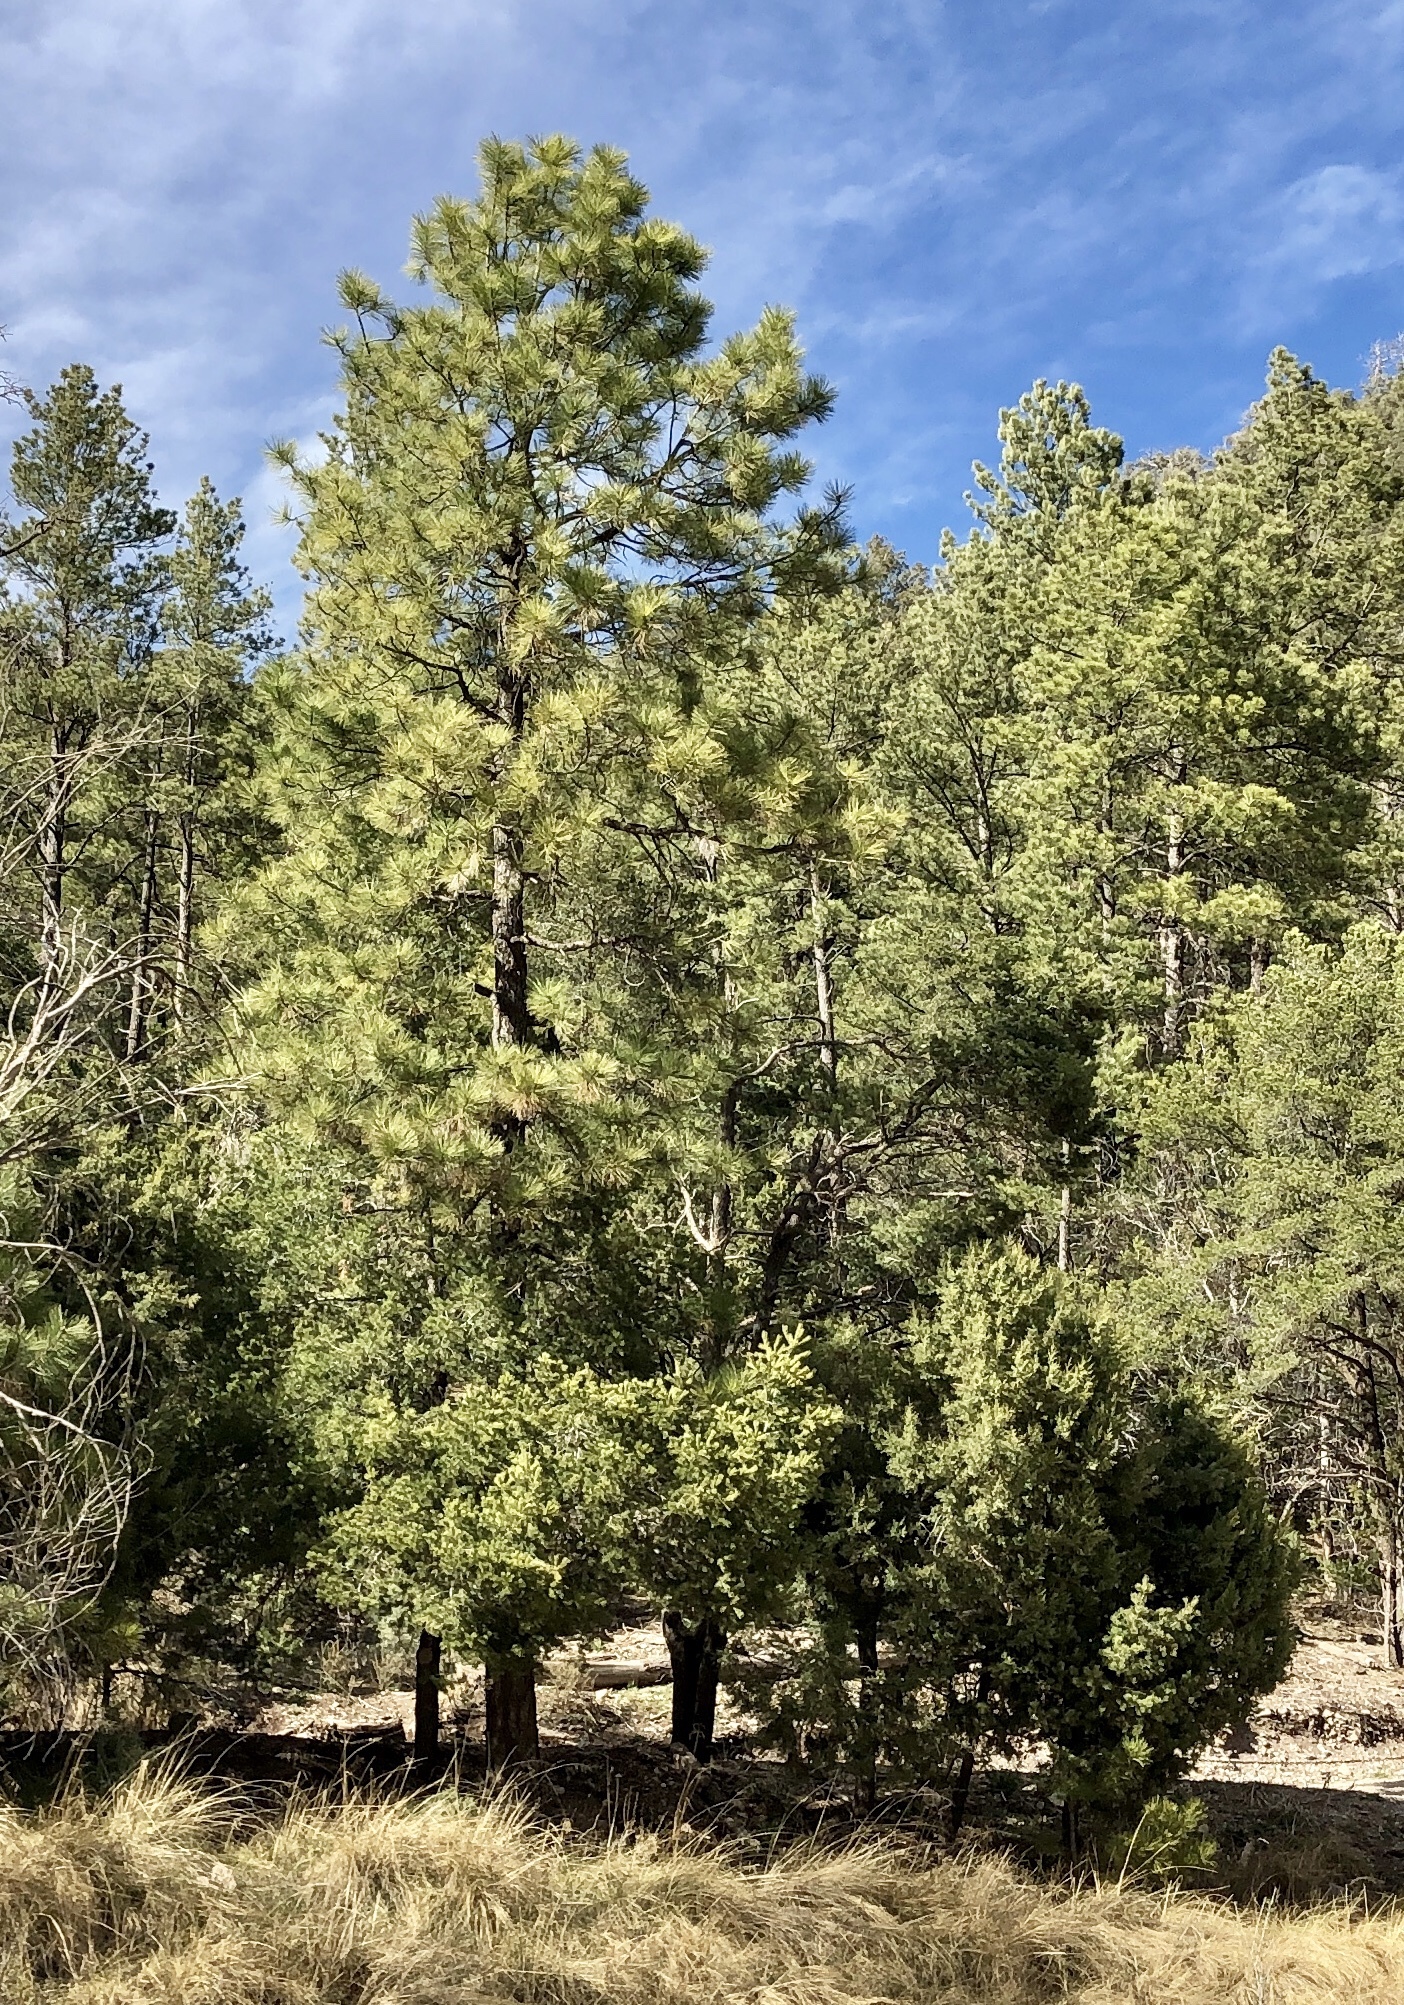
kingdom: Plantae
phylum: Tracheophyta
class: Pinopsida
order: Pinales
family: Pinaceae
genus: Pinus
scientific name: Pinus ponderosa
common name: Western yellow-pine
